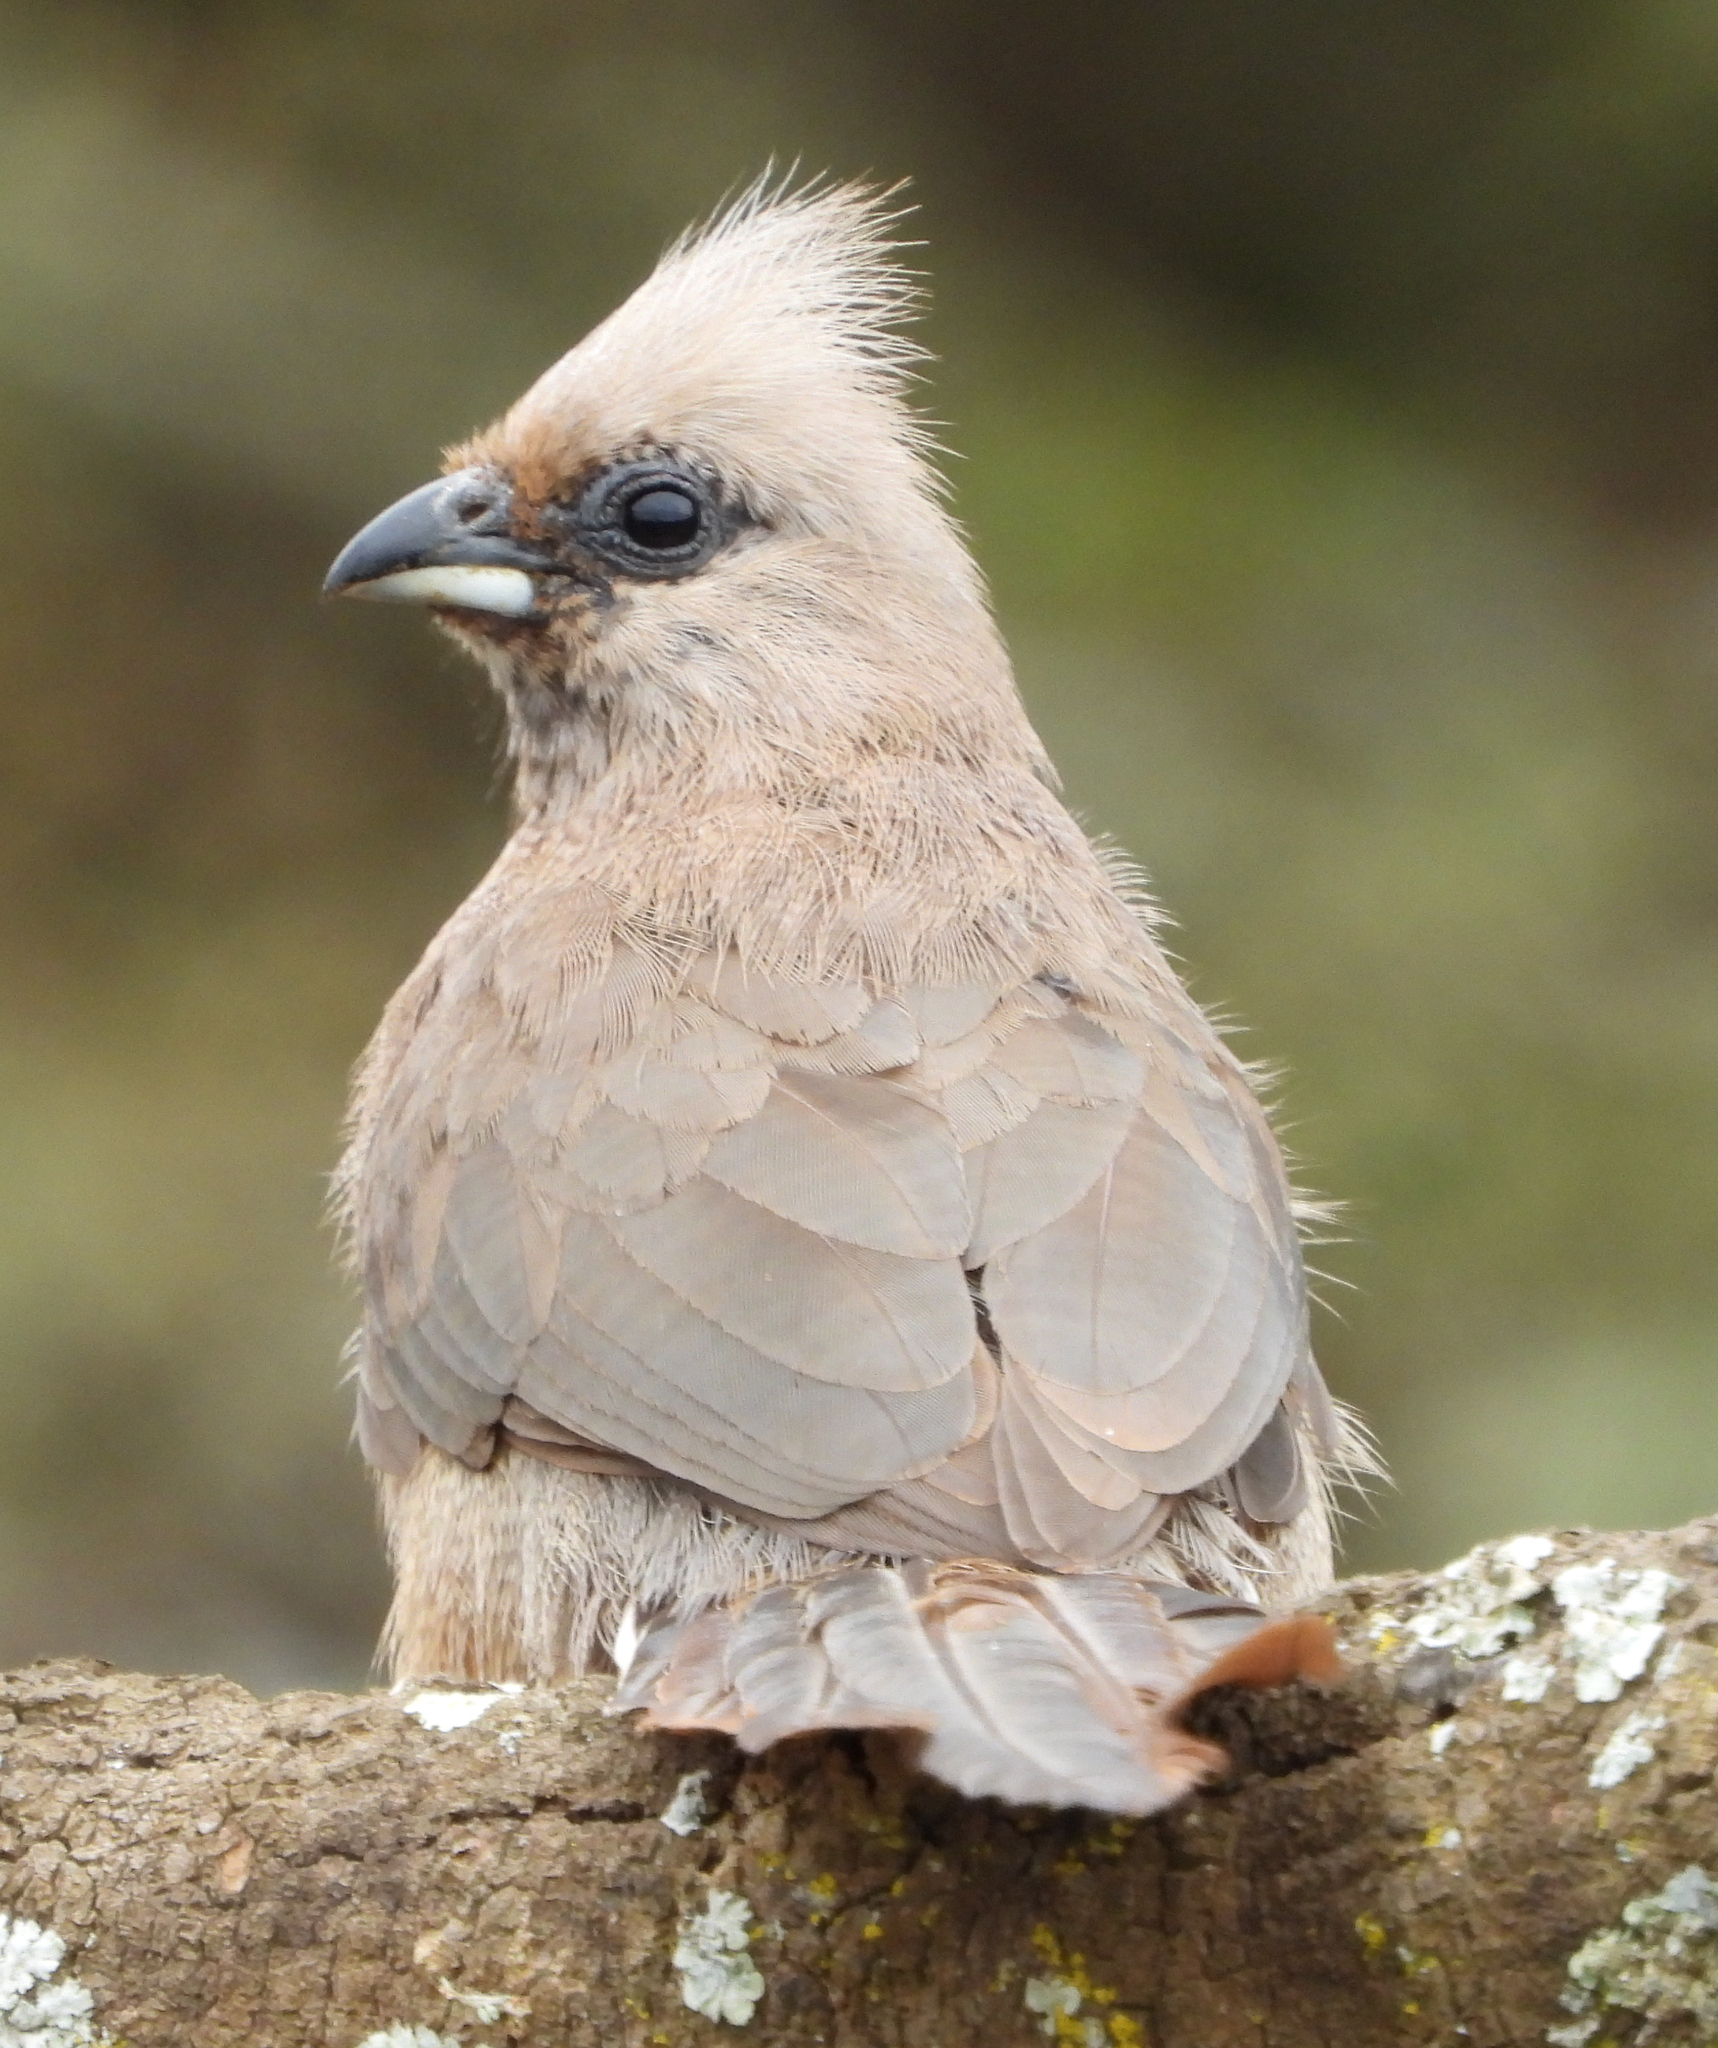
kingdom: Animalia
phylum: Chordata
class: Aves
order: Coliiformes
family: Coliidae
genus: Colius
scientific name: Colius striatus
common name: Speckled mousebird
